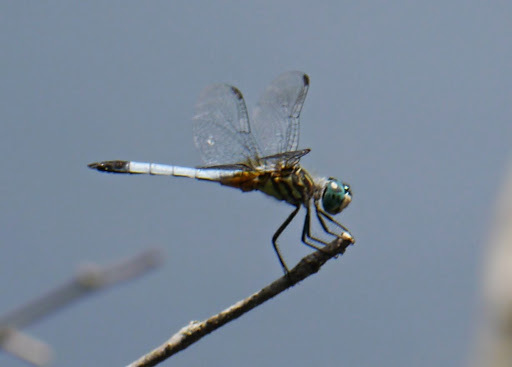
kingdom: Animalia
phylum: Arthropoda
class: Insecta
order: Odonata
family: Libellulidae
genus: Pachydiplax
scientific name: Pachydiplax longipennis
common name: Blue dasher
